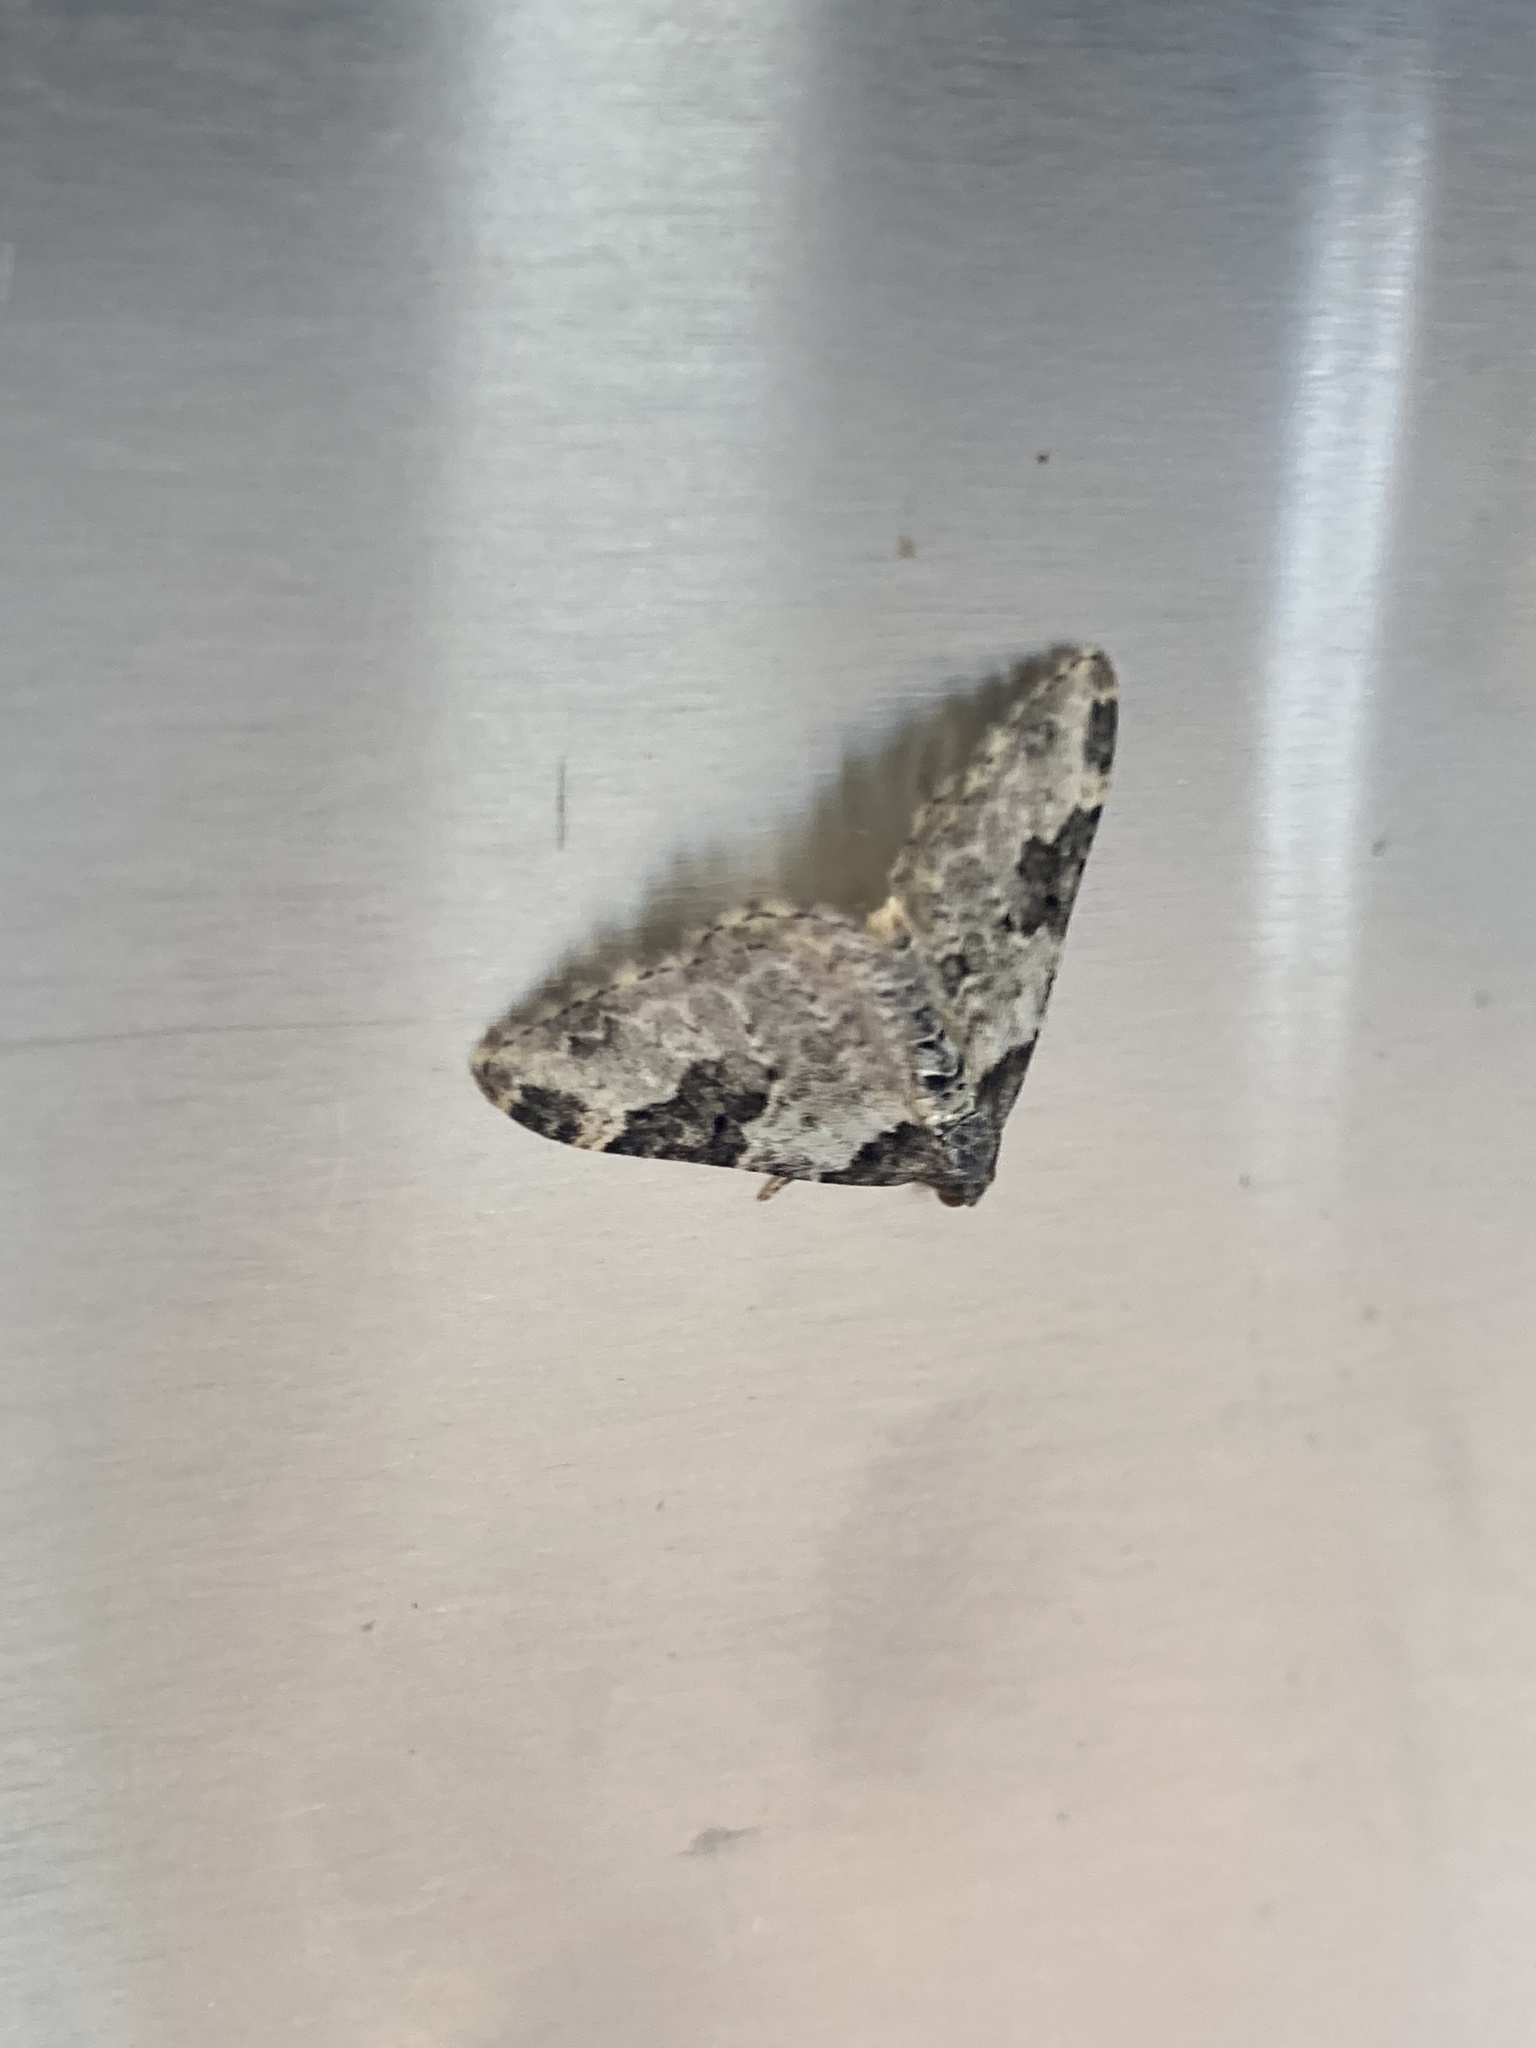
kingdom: Animalia
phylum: Arthropoda
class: Insecta
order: Lepidoptera
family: Geometridae
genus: Xanthorhoe
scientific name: Xanthorhoe fluctuata
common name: Garden carpet
